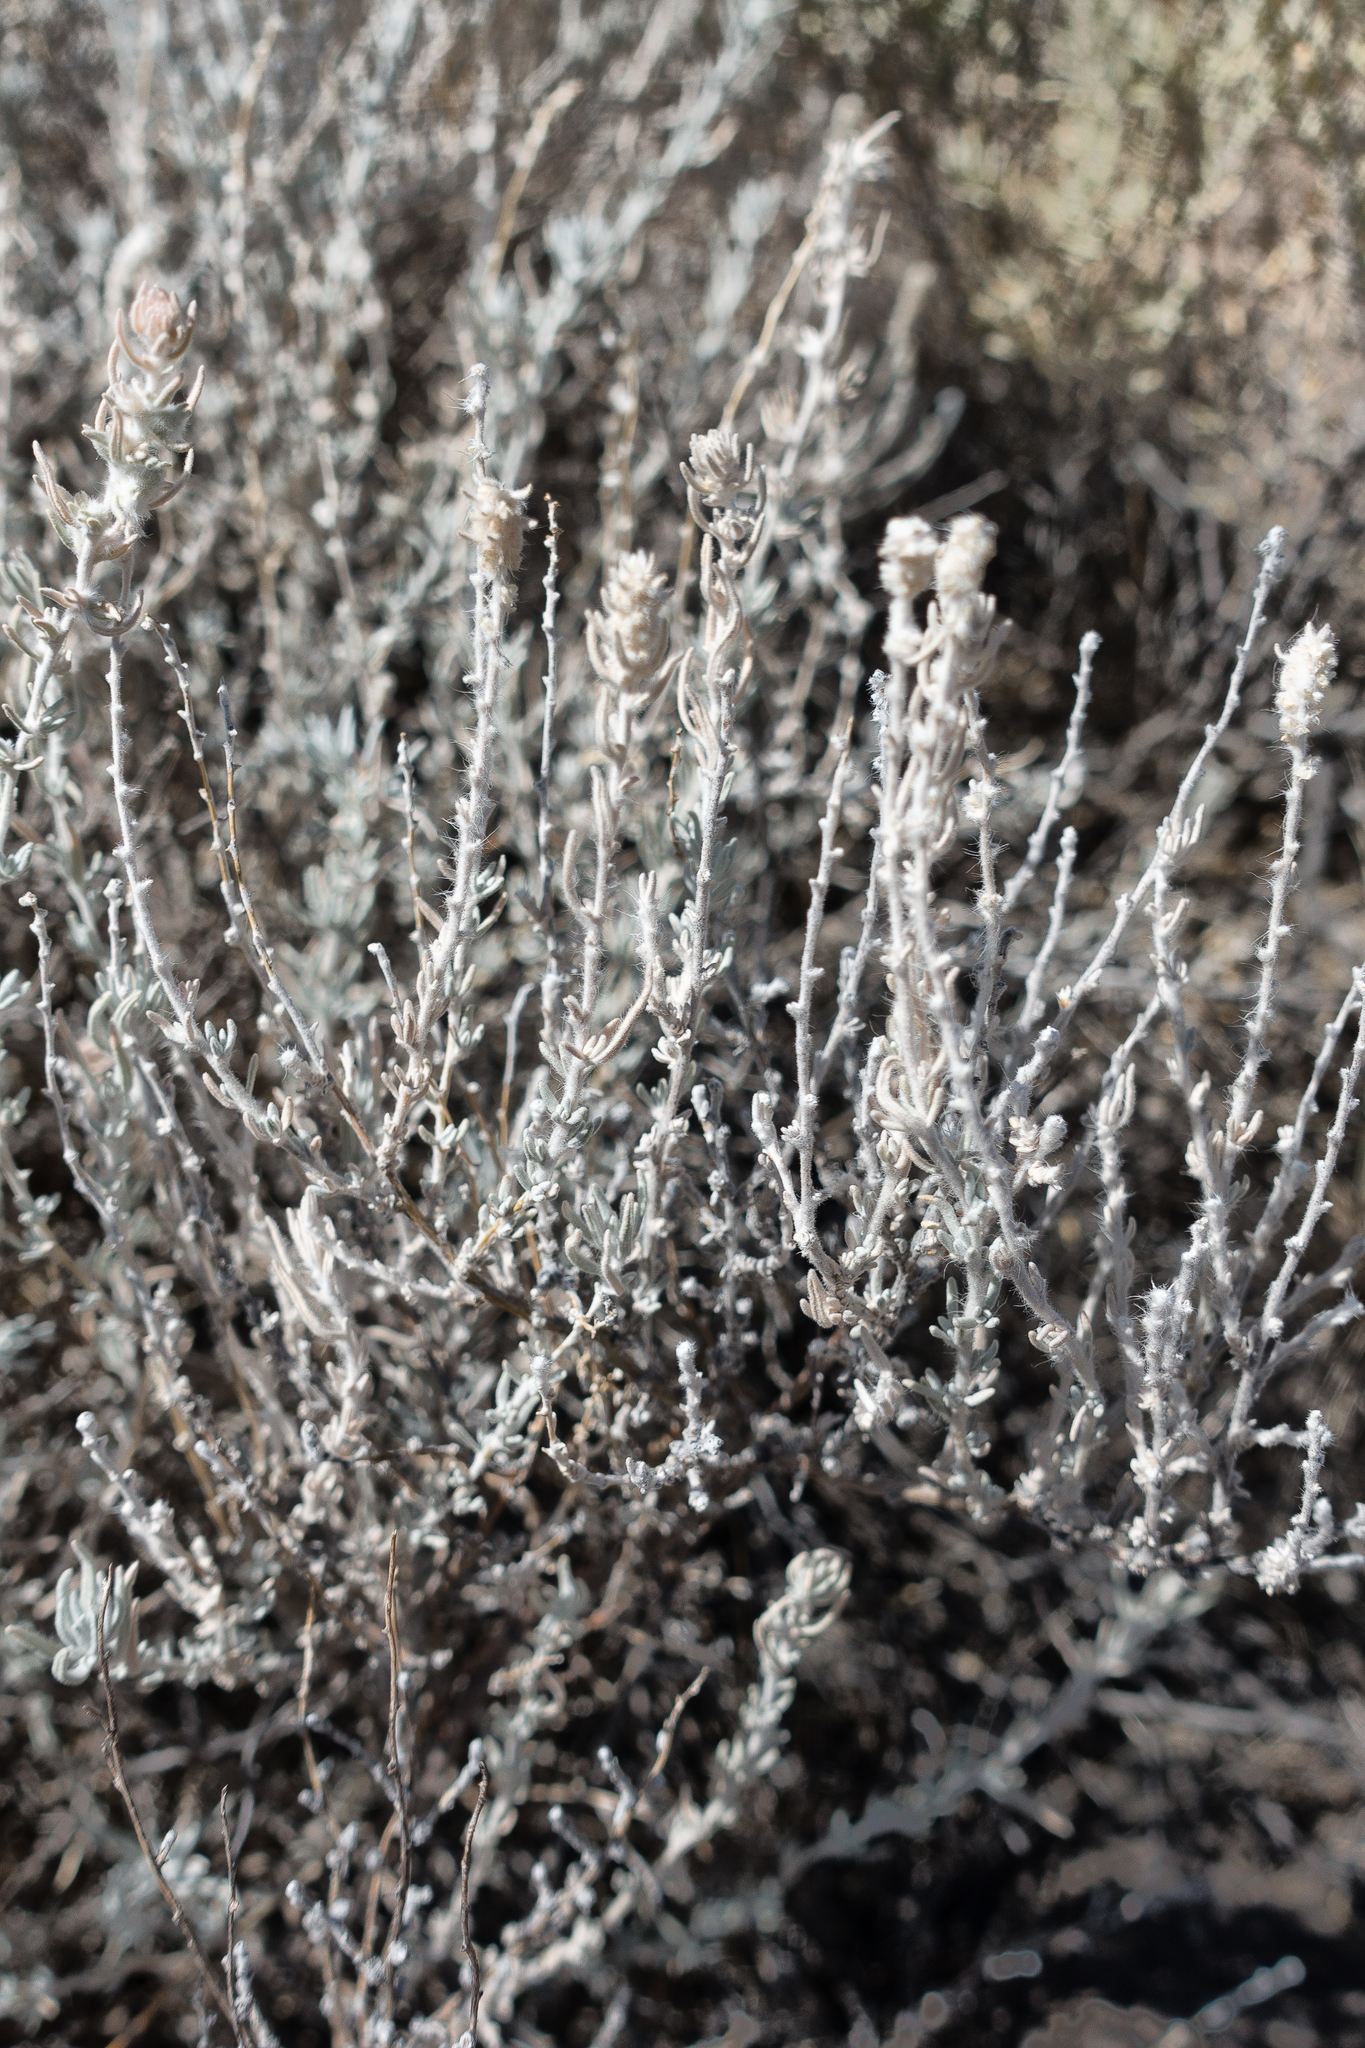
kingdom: Plantae
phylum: Tracheophyta
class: Magnoliopsida
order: Caryophyllales
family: Amaranthaceae
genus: Krascheninnikovia
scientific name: Krascheninnikovia lanata
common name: Winterfat
